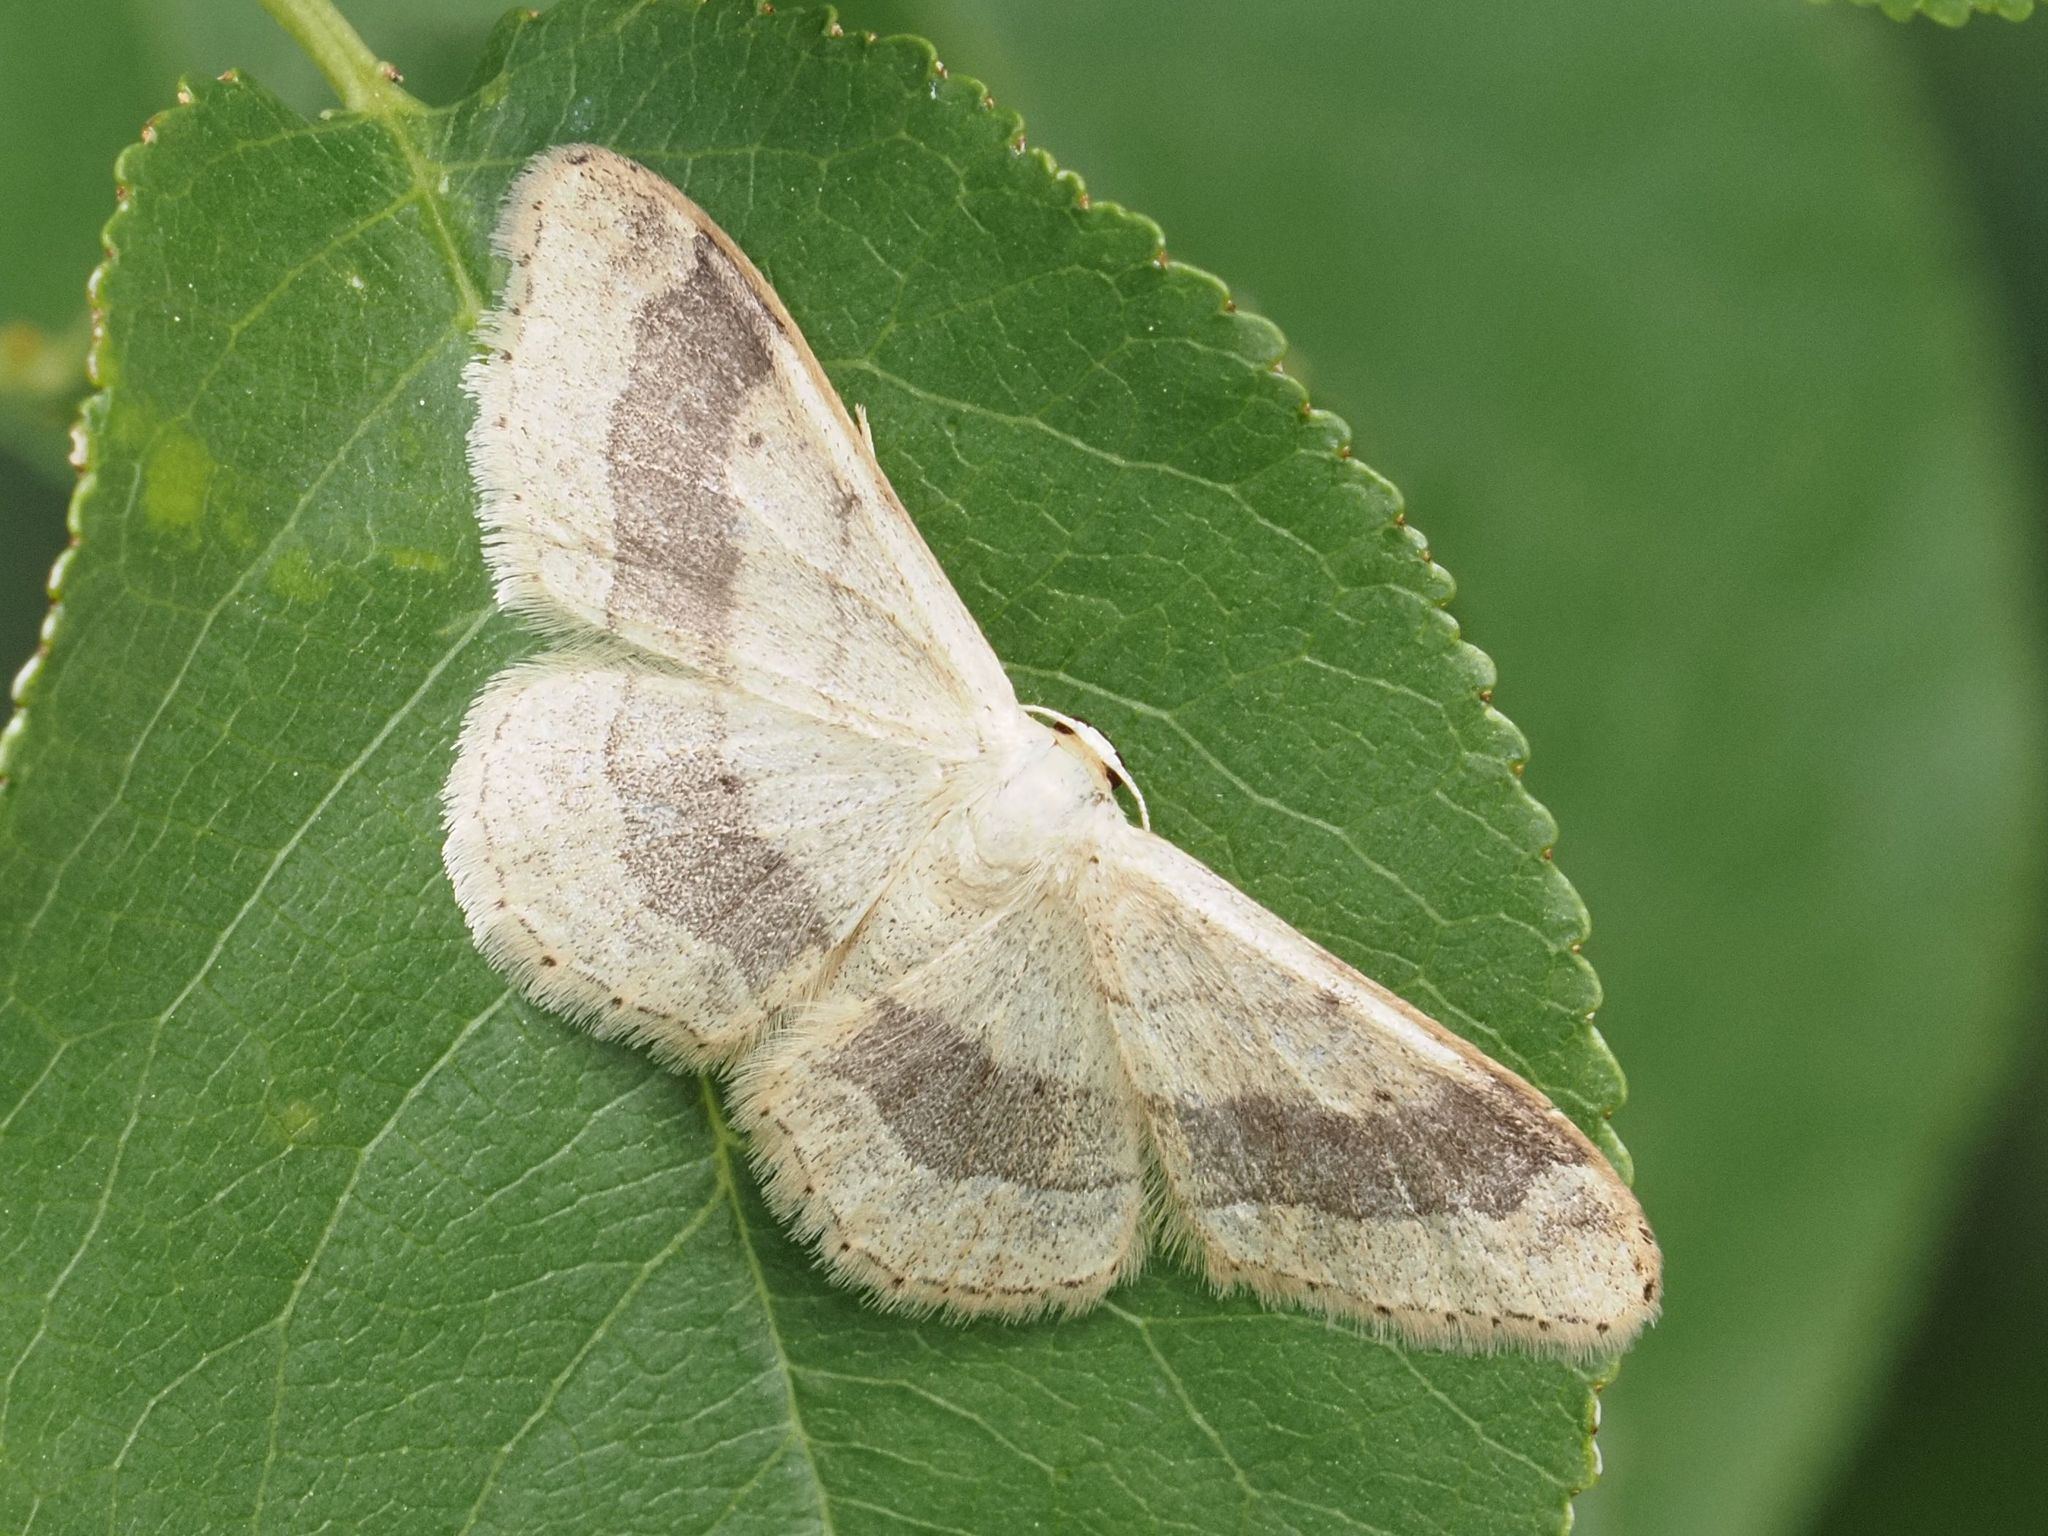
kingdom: Animalia
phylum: Arthropoda
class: Insecta
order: Lepidoptera
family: Geometridae
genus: Idaea
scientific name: Idaea aversata
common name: Riband wave
